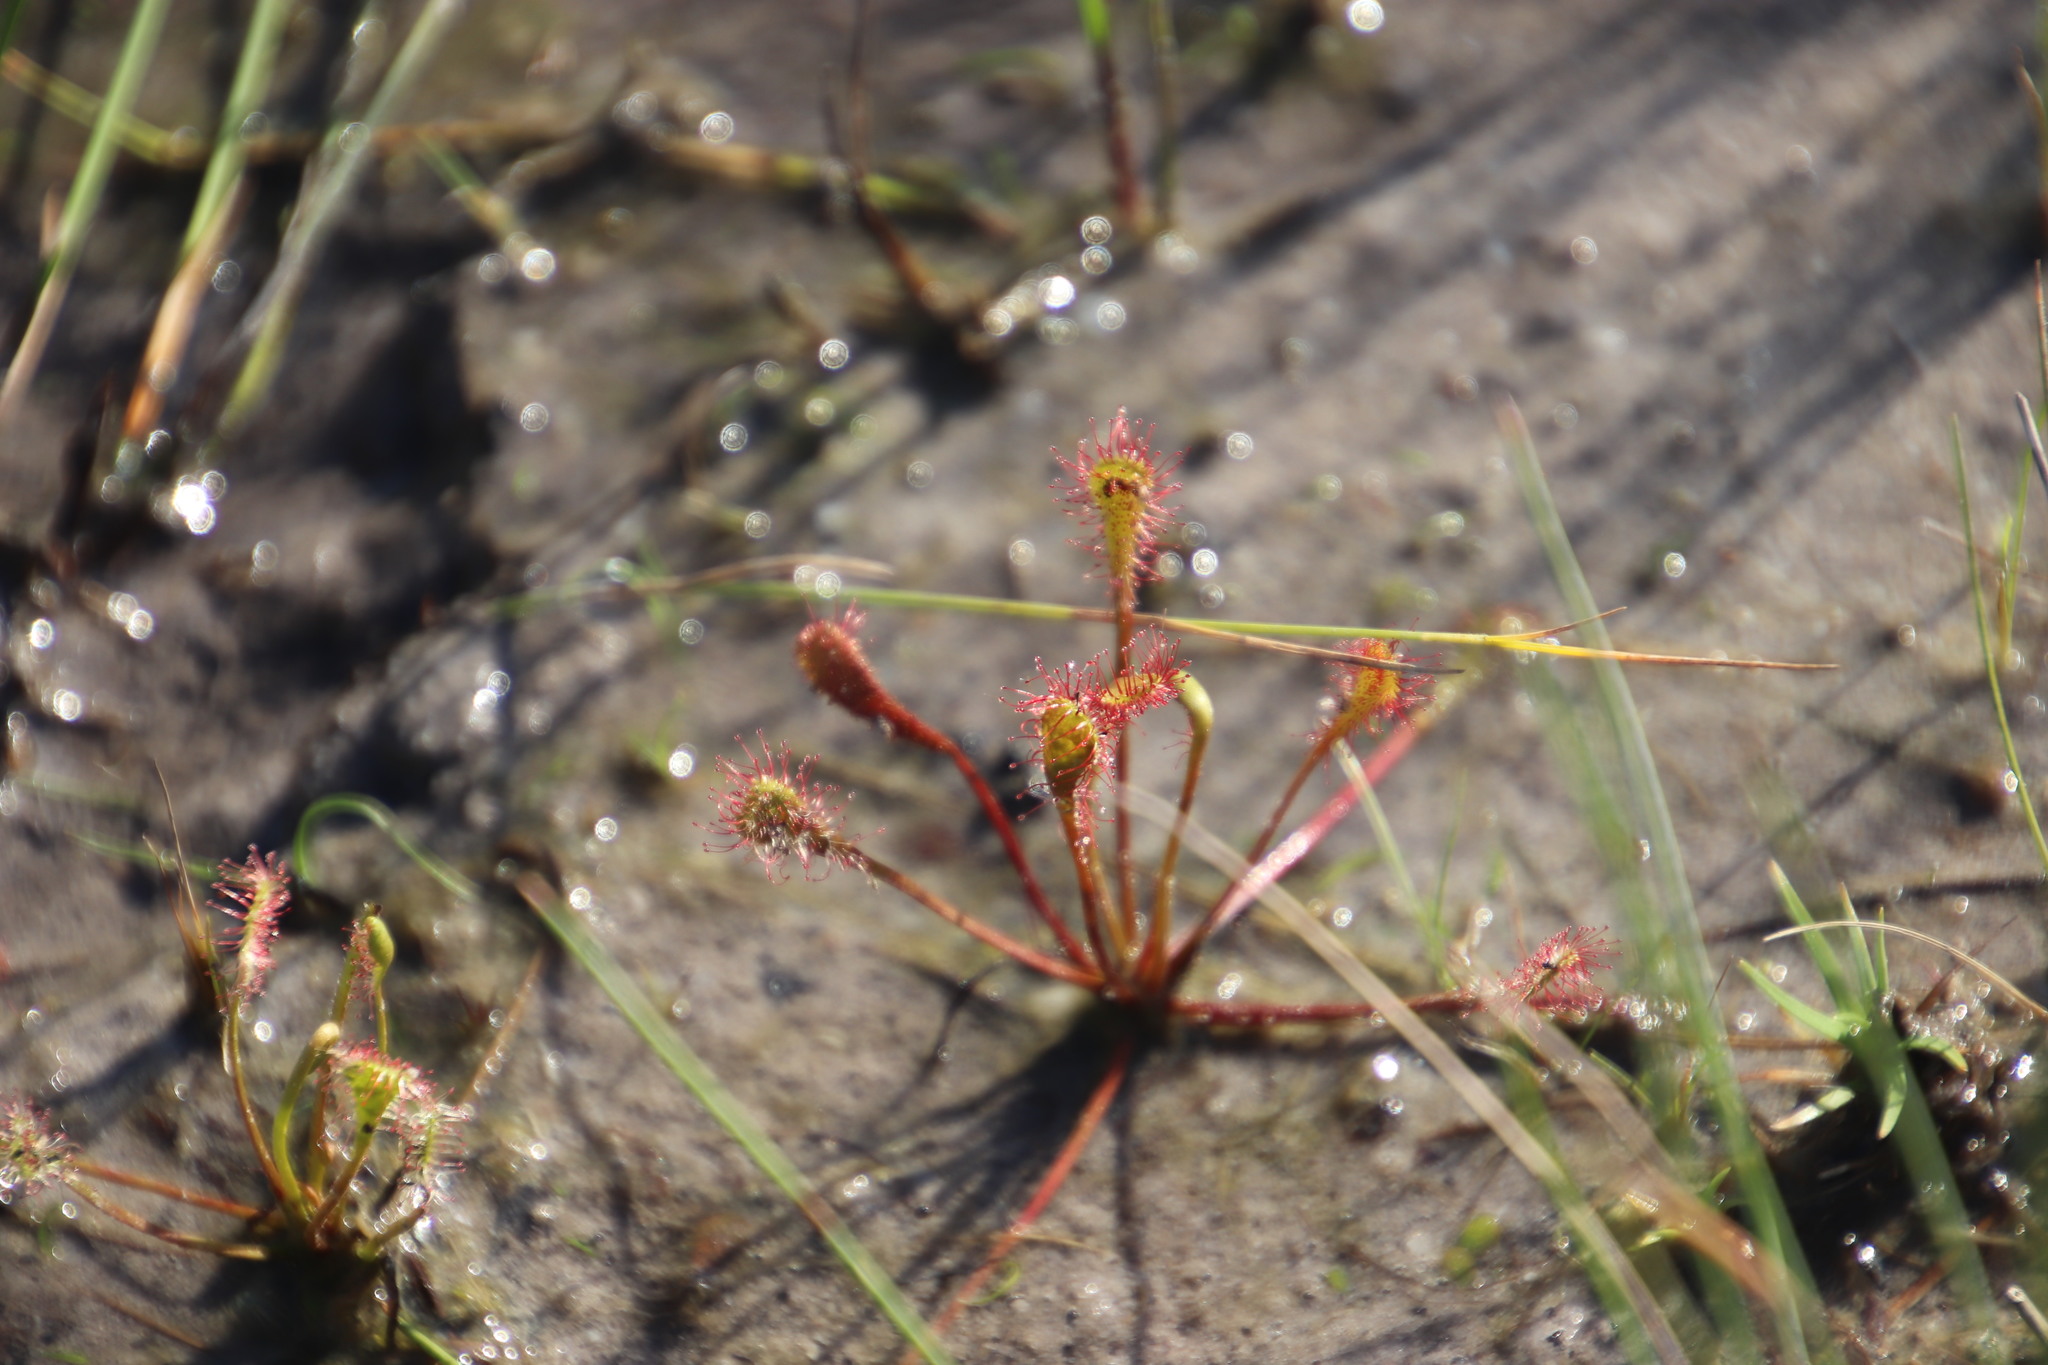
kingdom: Plantae
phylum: Tracheophyta
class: Magnoliopsida
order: Caryophyllales
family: Droseraceae
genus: Drosera
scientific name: Drosera nidiformis
